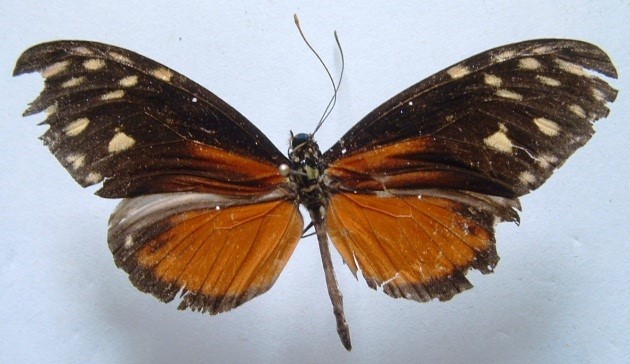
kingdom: Animalia
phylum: Arthropoda
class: Insecta
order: Lepidoptera
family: Nymphalidae
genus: Heliconius
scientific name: Heliconius hecale
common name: Tiger longwing
